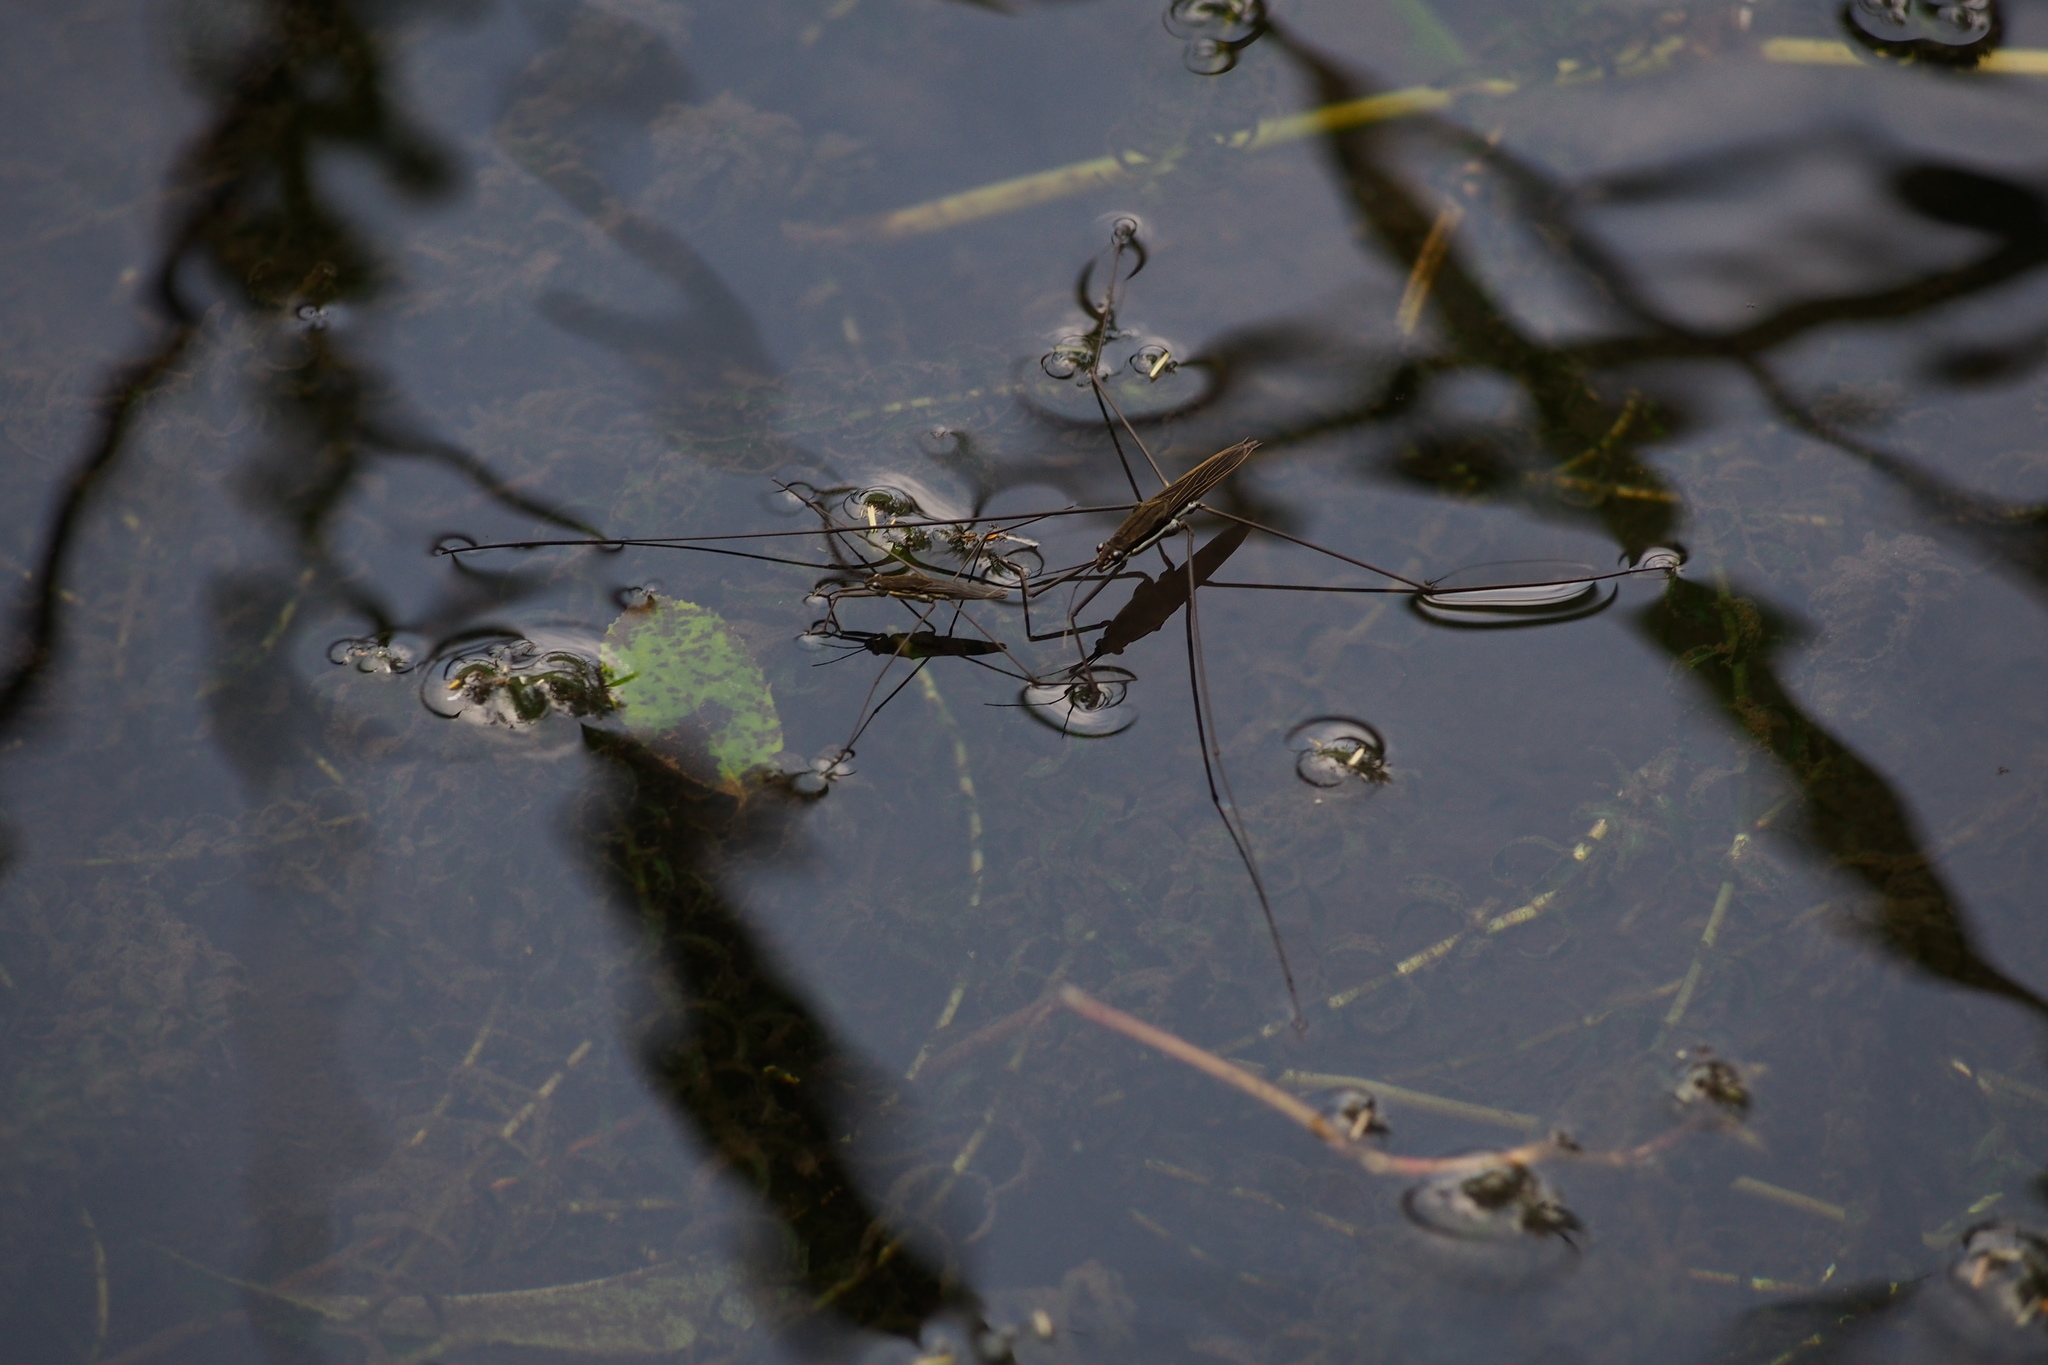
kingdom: Animalia
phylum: Arthropoda
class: Insecta
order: Hemiptera
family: Gerridae
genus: Aquarius
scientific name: Aquarius elongatus
